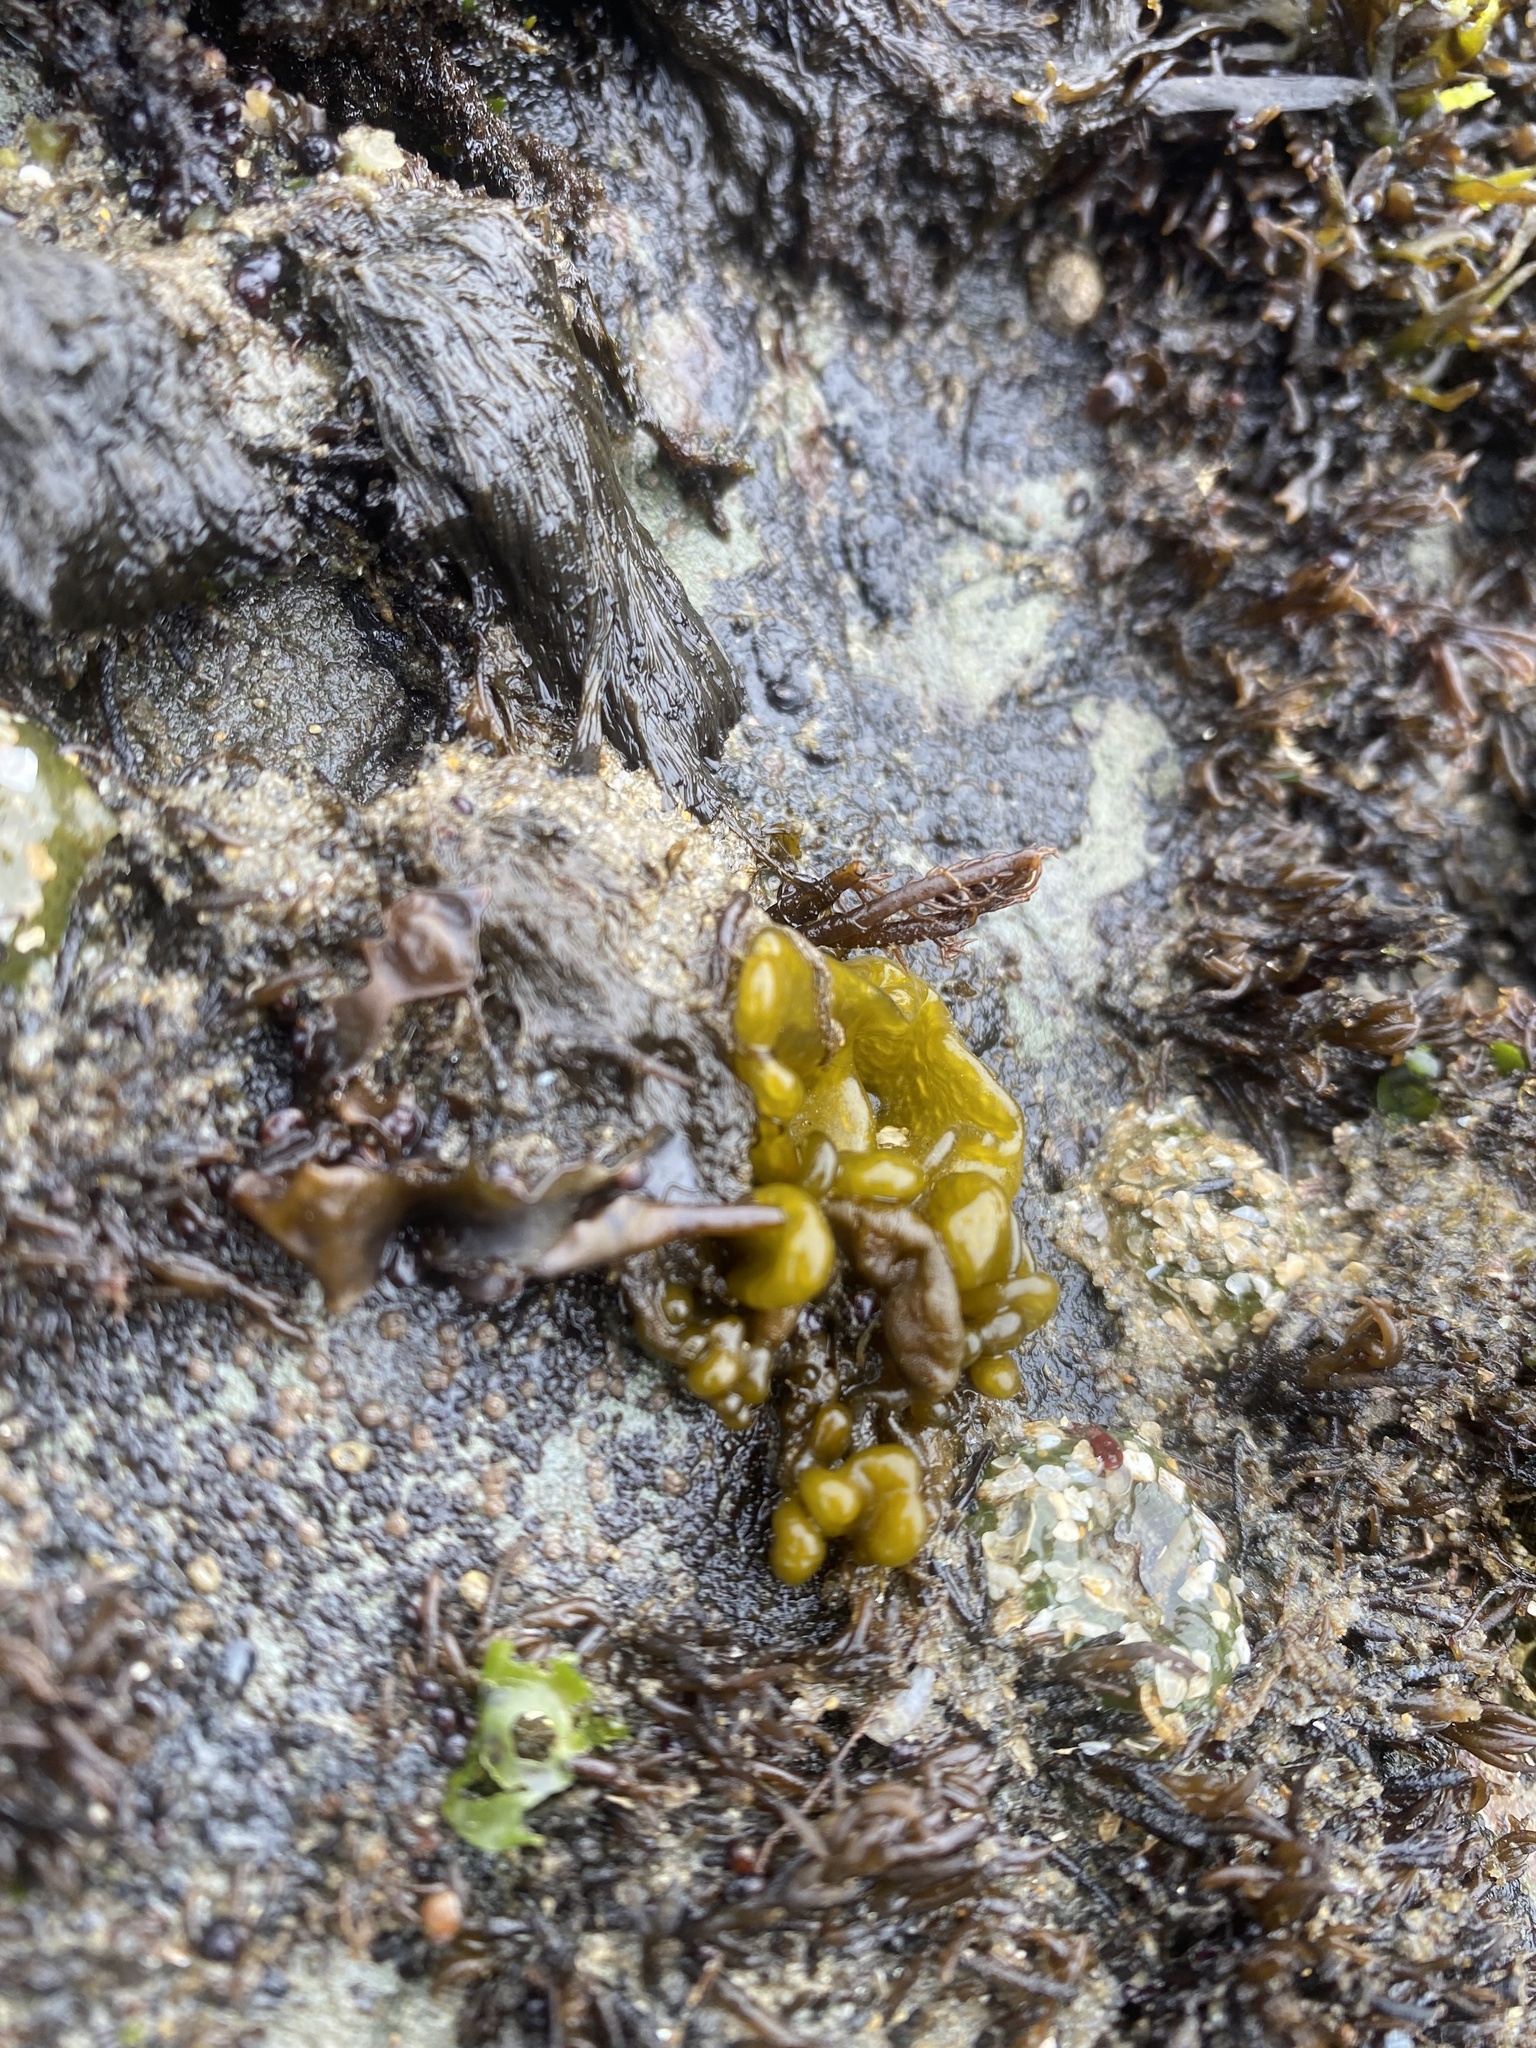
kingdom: Chromista
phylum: Ochrophyta
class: Phaeophyceae
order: Ectocarpales
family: Chordariaceae
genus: Leathesia
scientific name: Leathesia marina
